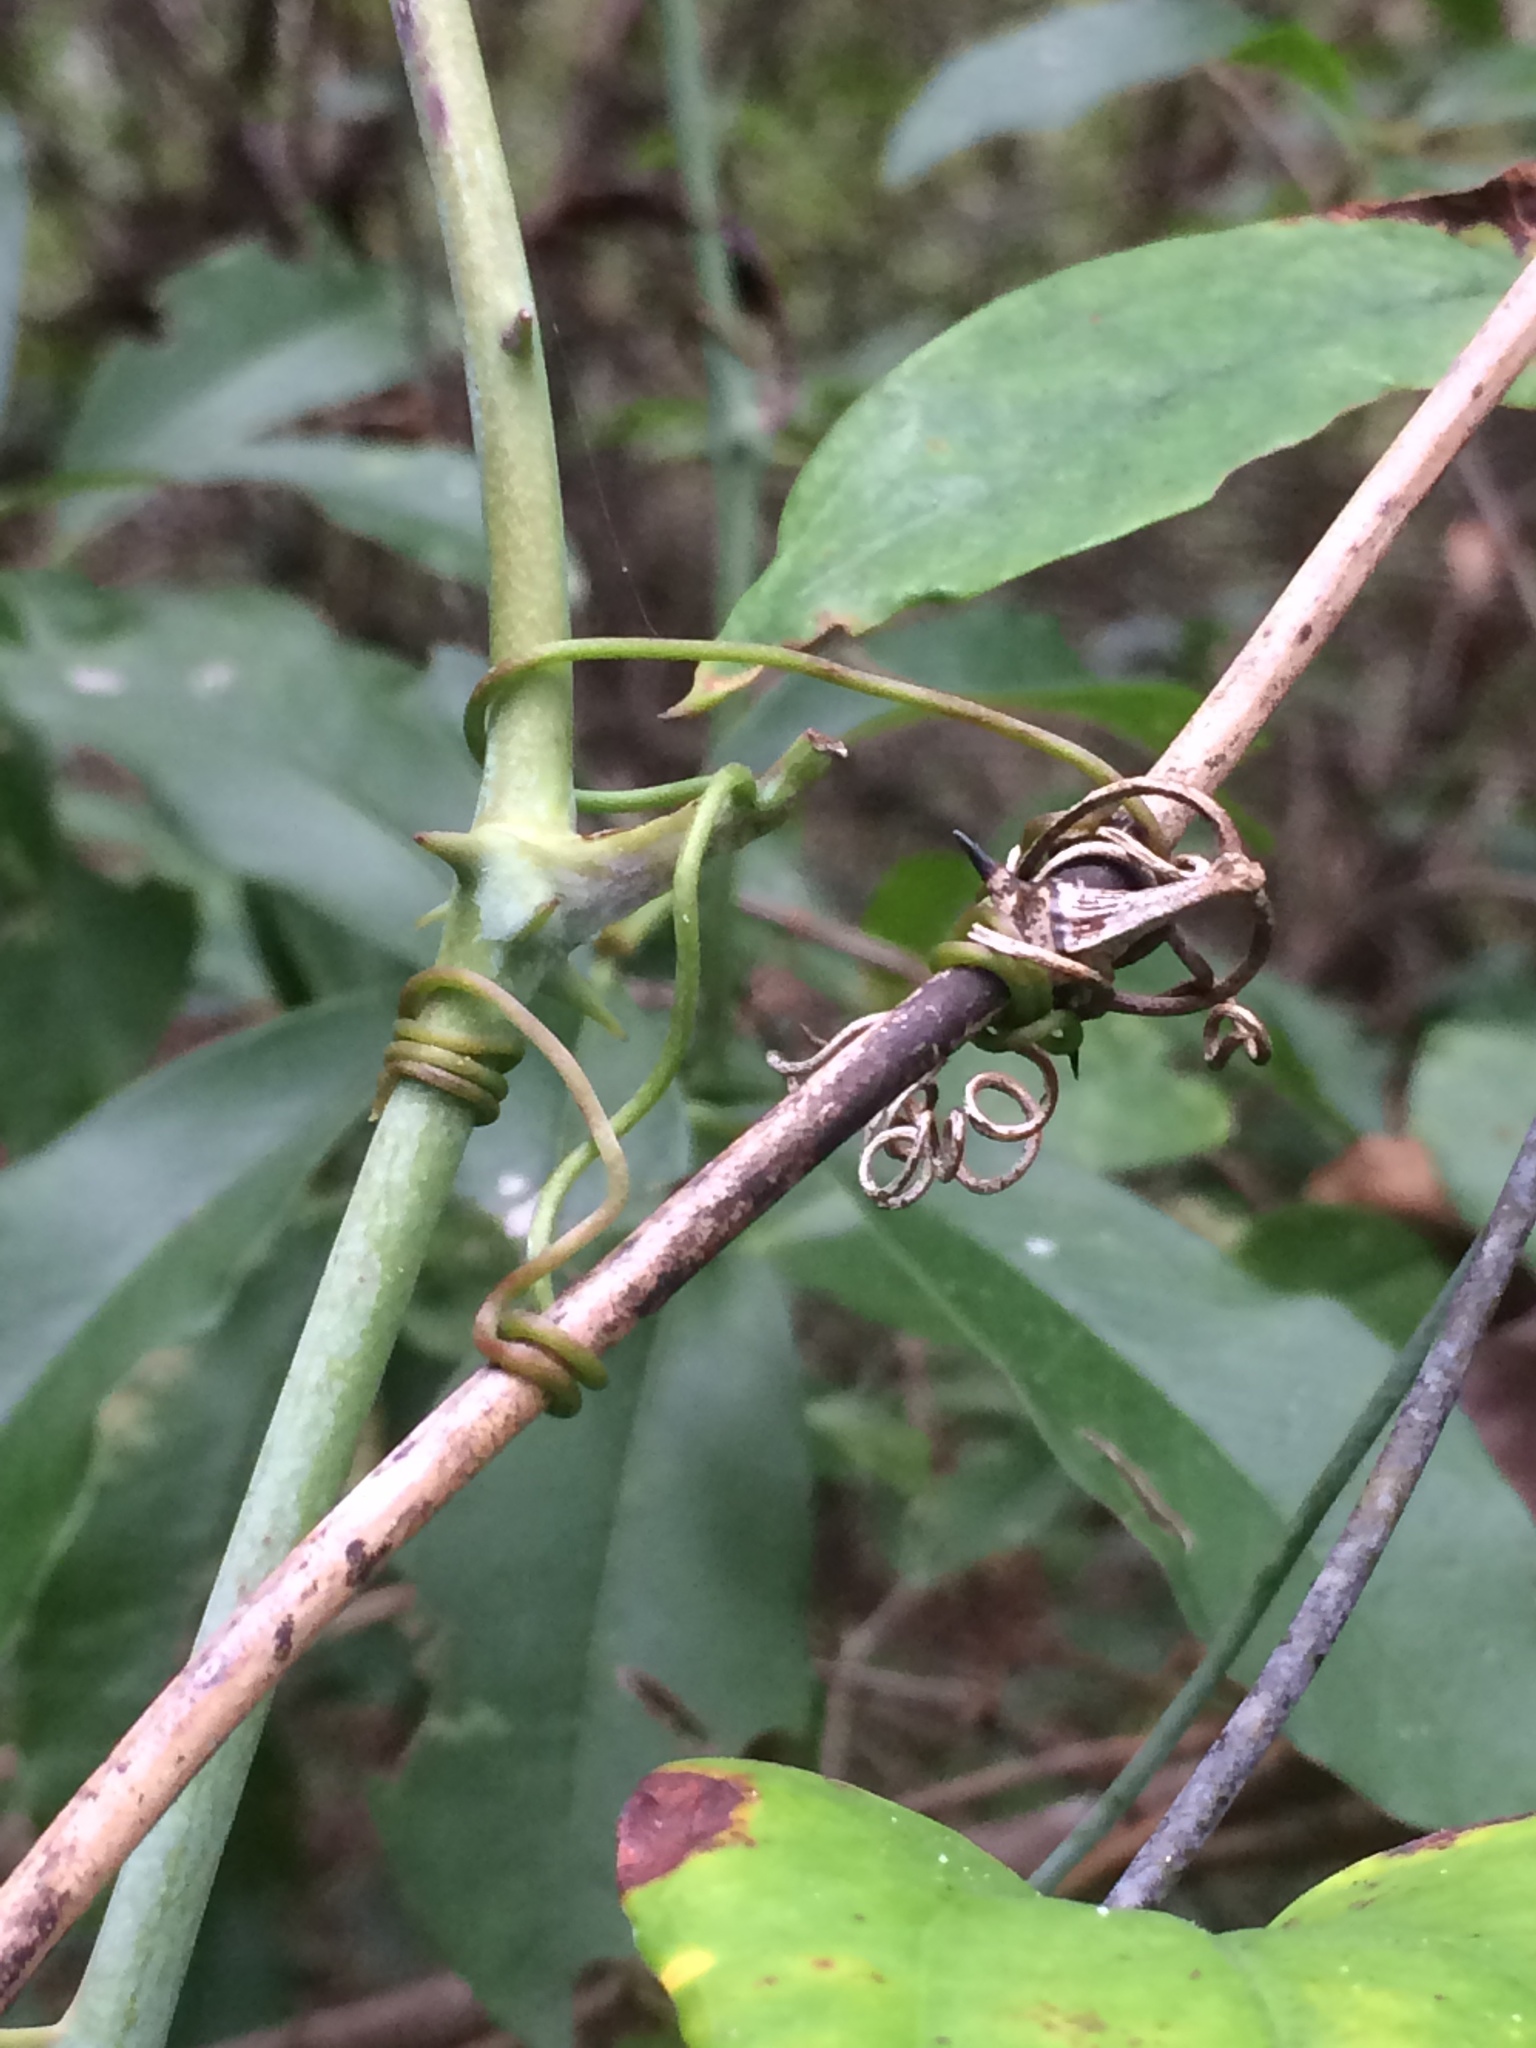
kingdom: Plantae
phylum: Tracheophyta
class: Liliopsida
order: Liliales
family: Smilacaceae
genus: Smilax
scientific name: Smilax glauca
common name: Cat greenbrier
